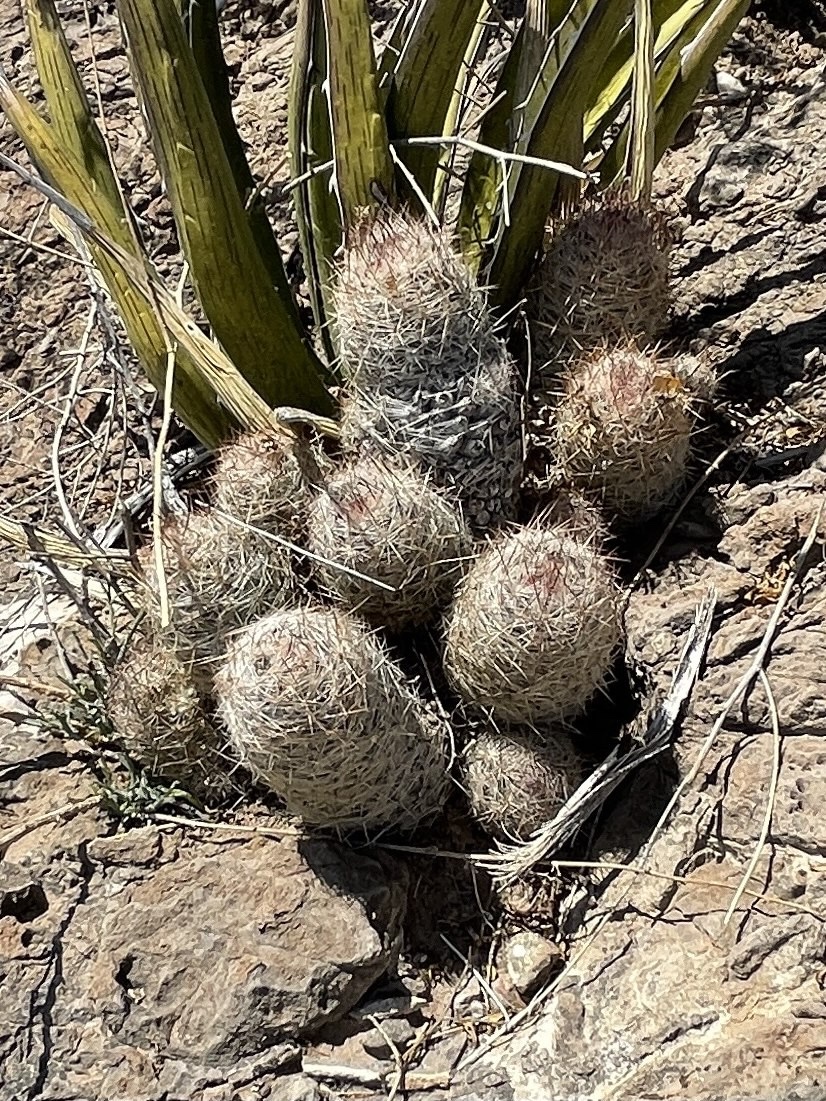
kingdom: Plantae
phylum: Tracheophyta
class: Magnoliopsida
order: Caryophyllales
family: Cactaceae
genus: Pelecyphora
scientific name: Pelecyphora tuberculosa
